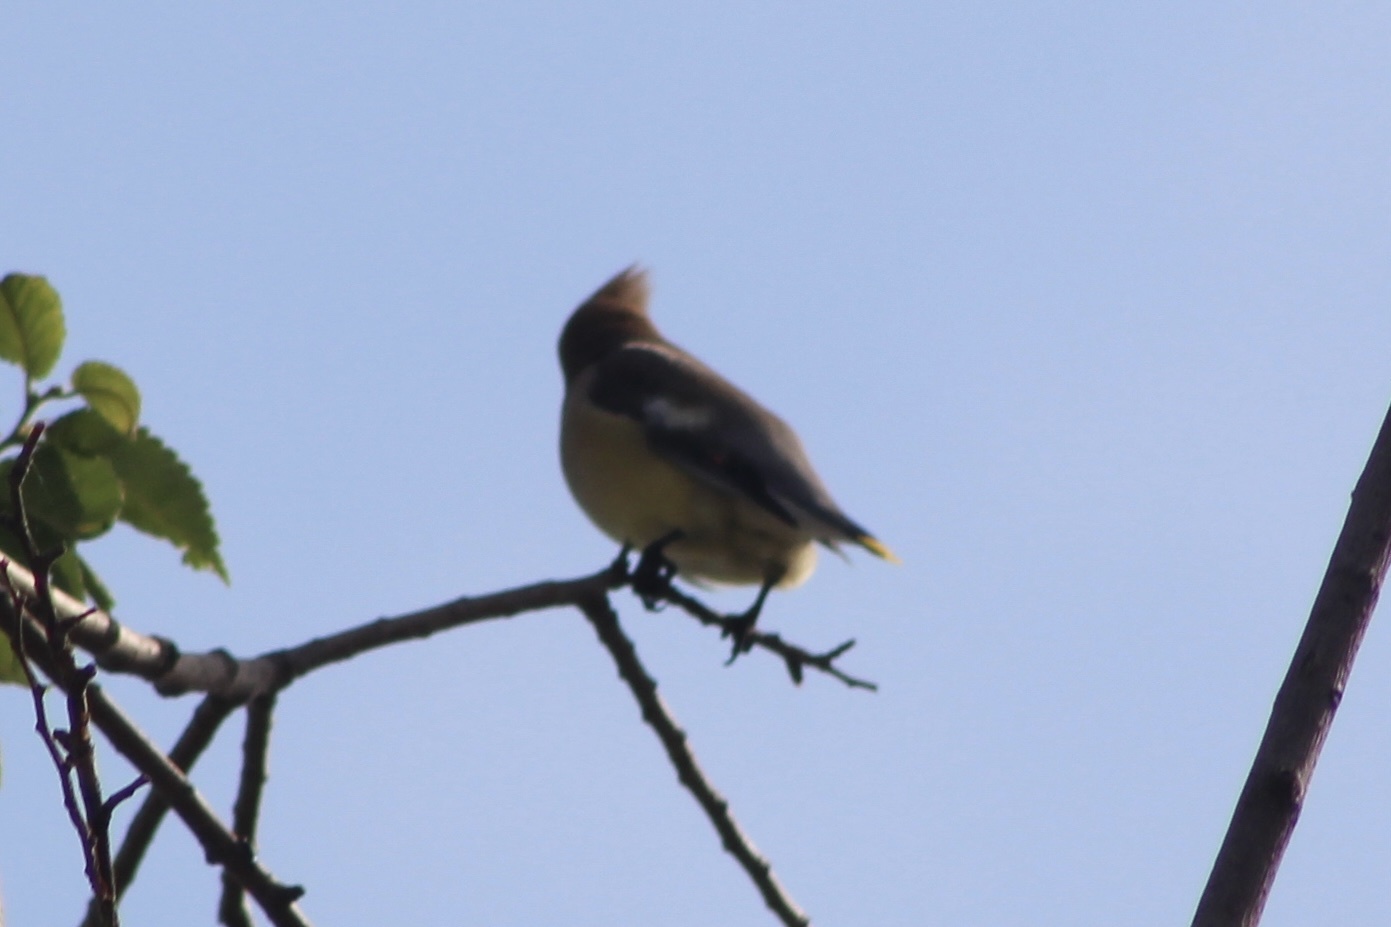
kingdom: Animalia
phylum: Chordata
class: Aves
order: Passeriformes
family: Bombycillidae
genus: Bombycilla
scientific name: Bombycilla cedrorum
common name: Cedar waxwing
